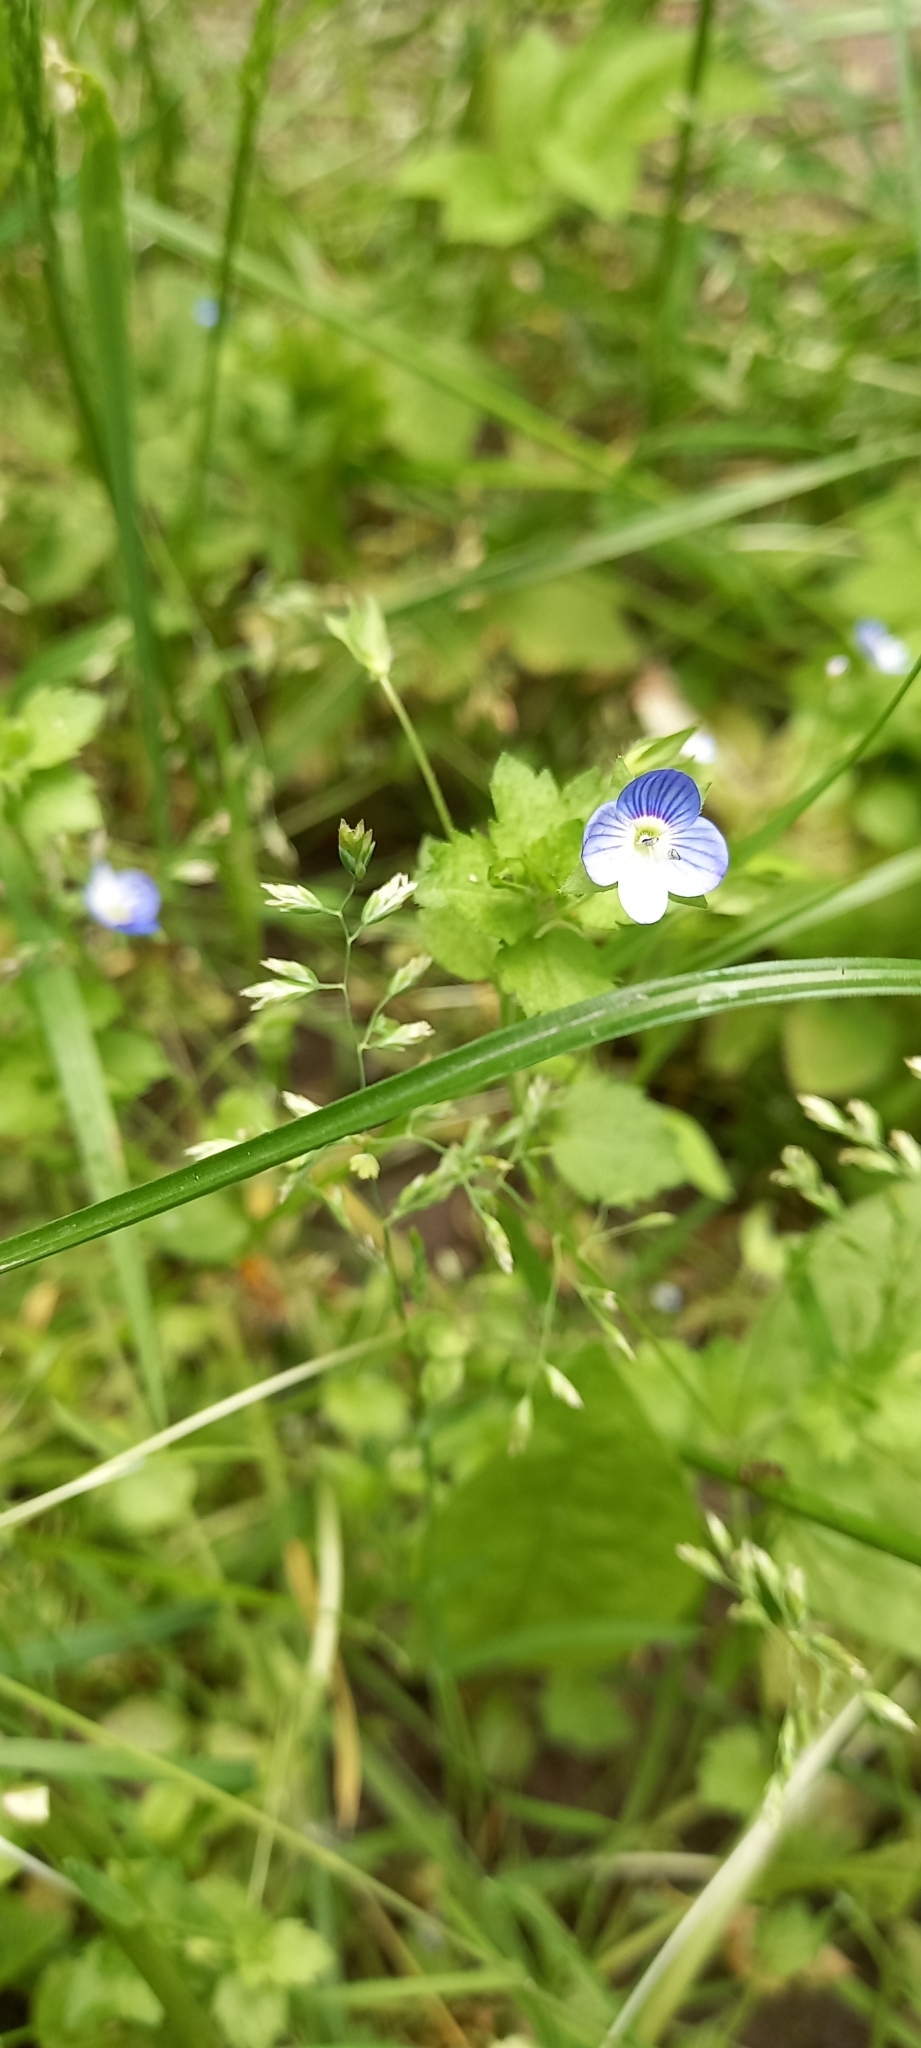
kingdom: Plantae
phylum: Tracheophyta
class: Magnoliopsida
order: Lamiales
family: Plantaginaceae
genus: Veronica
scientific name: Veronica persica
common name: Common field-speedwell
